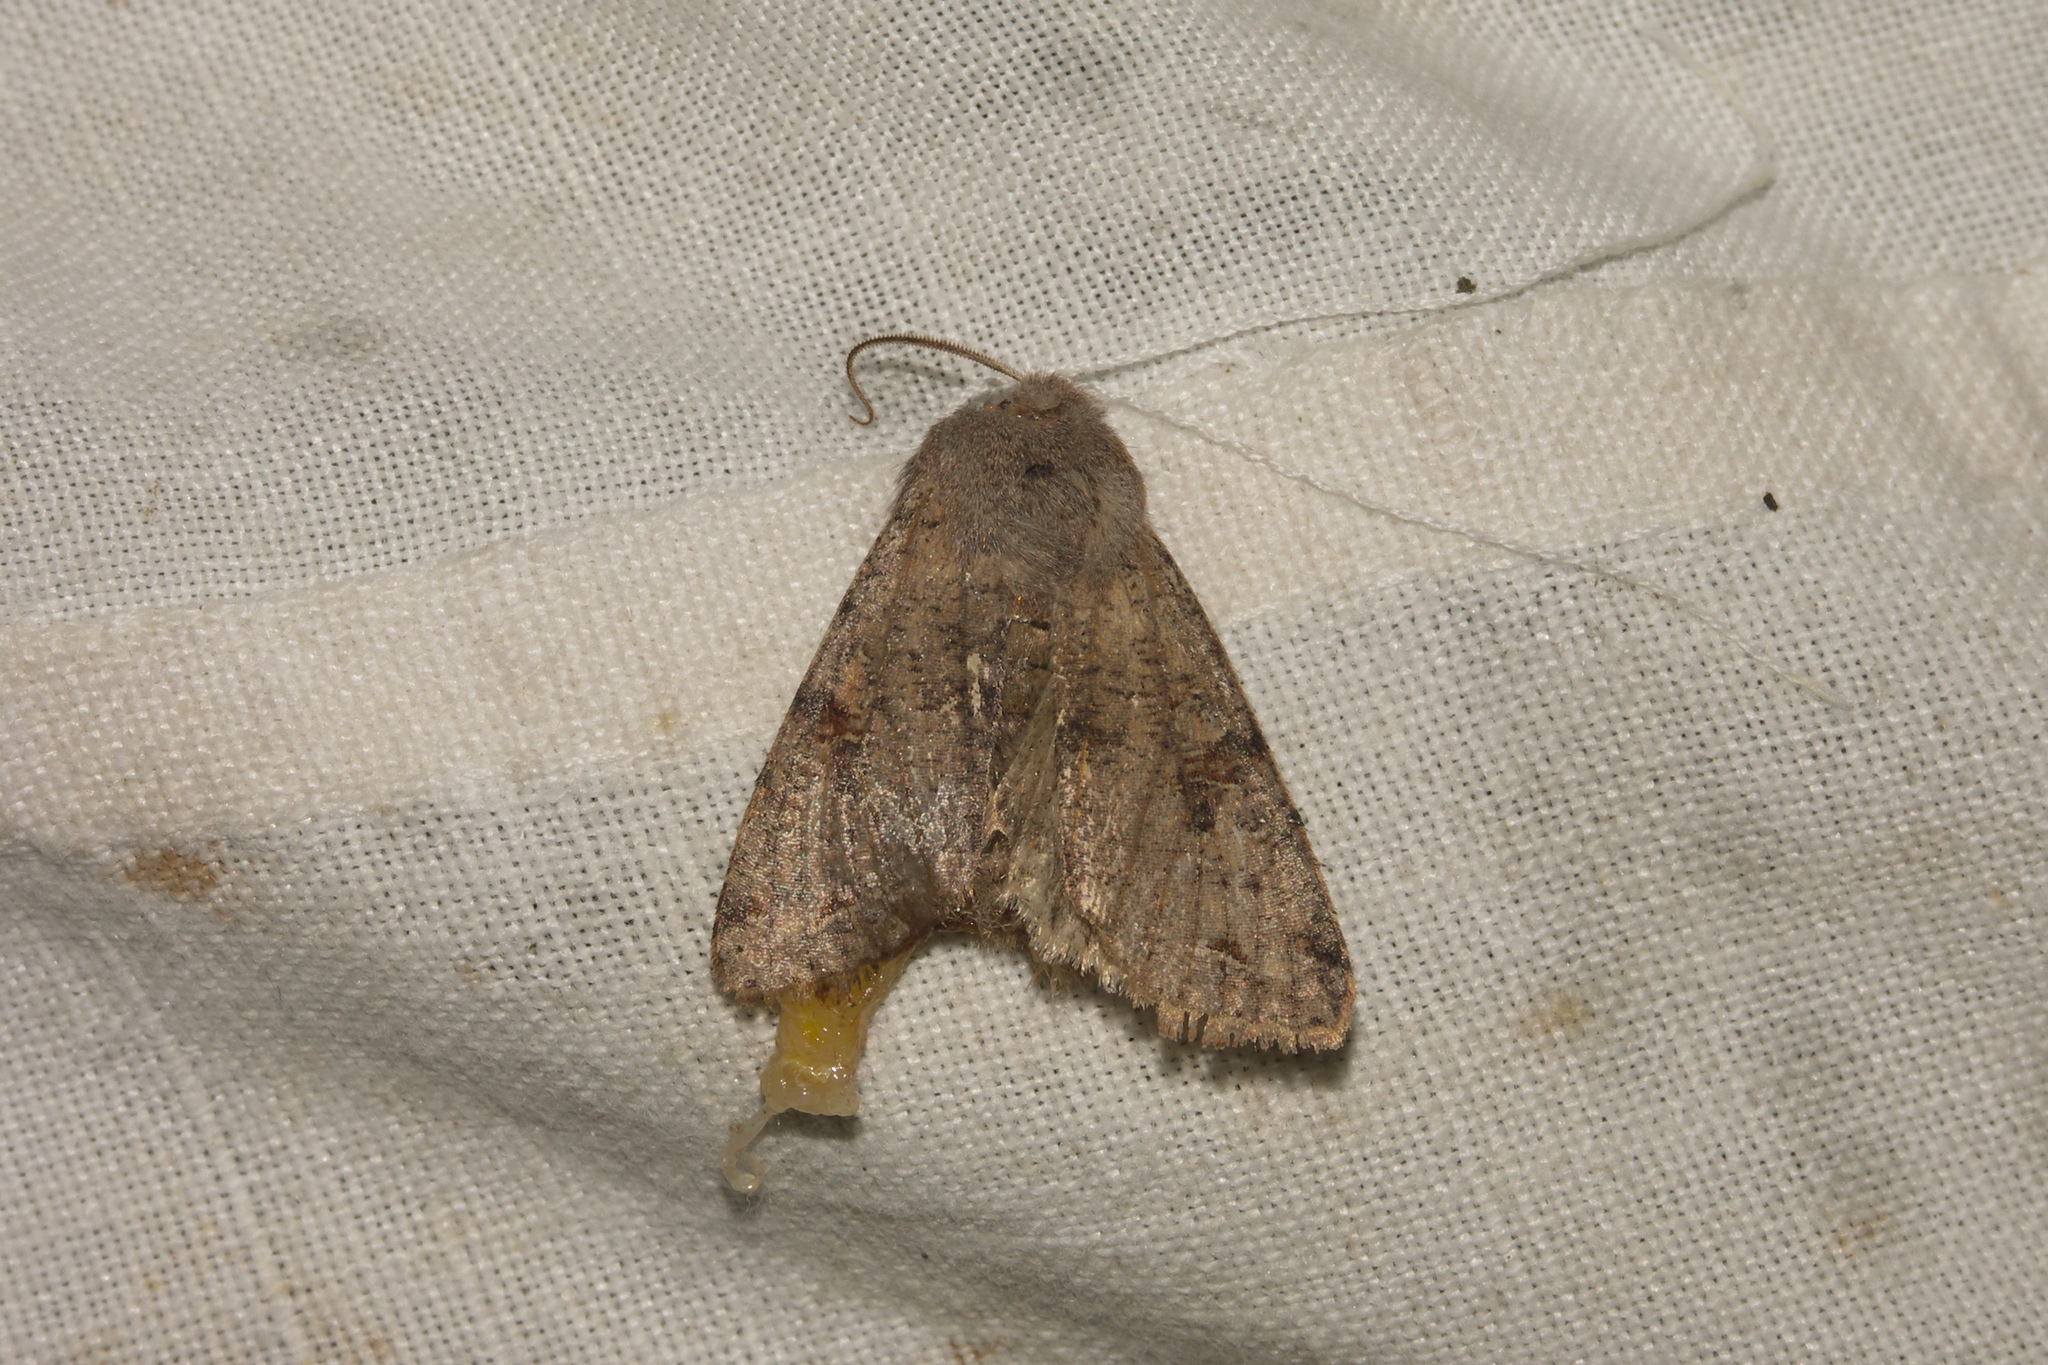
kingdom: Animalia
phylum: Arthropoda
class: Insecta
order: Lepidoptera
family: Noctuidae
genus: Orthosia
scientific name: Orthosia incerta
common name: Clouded drab
